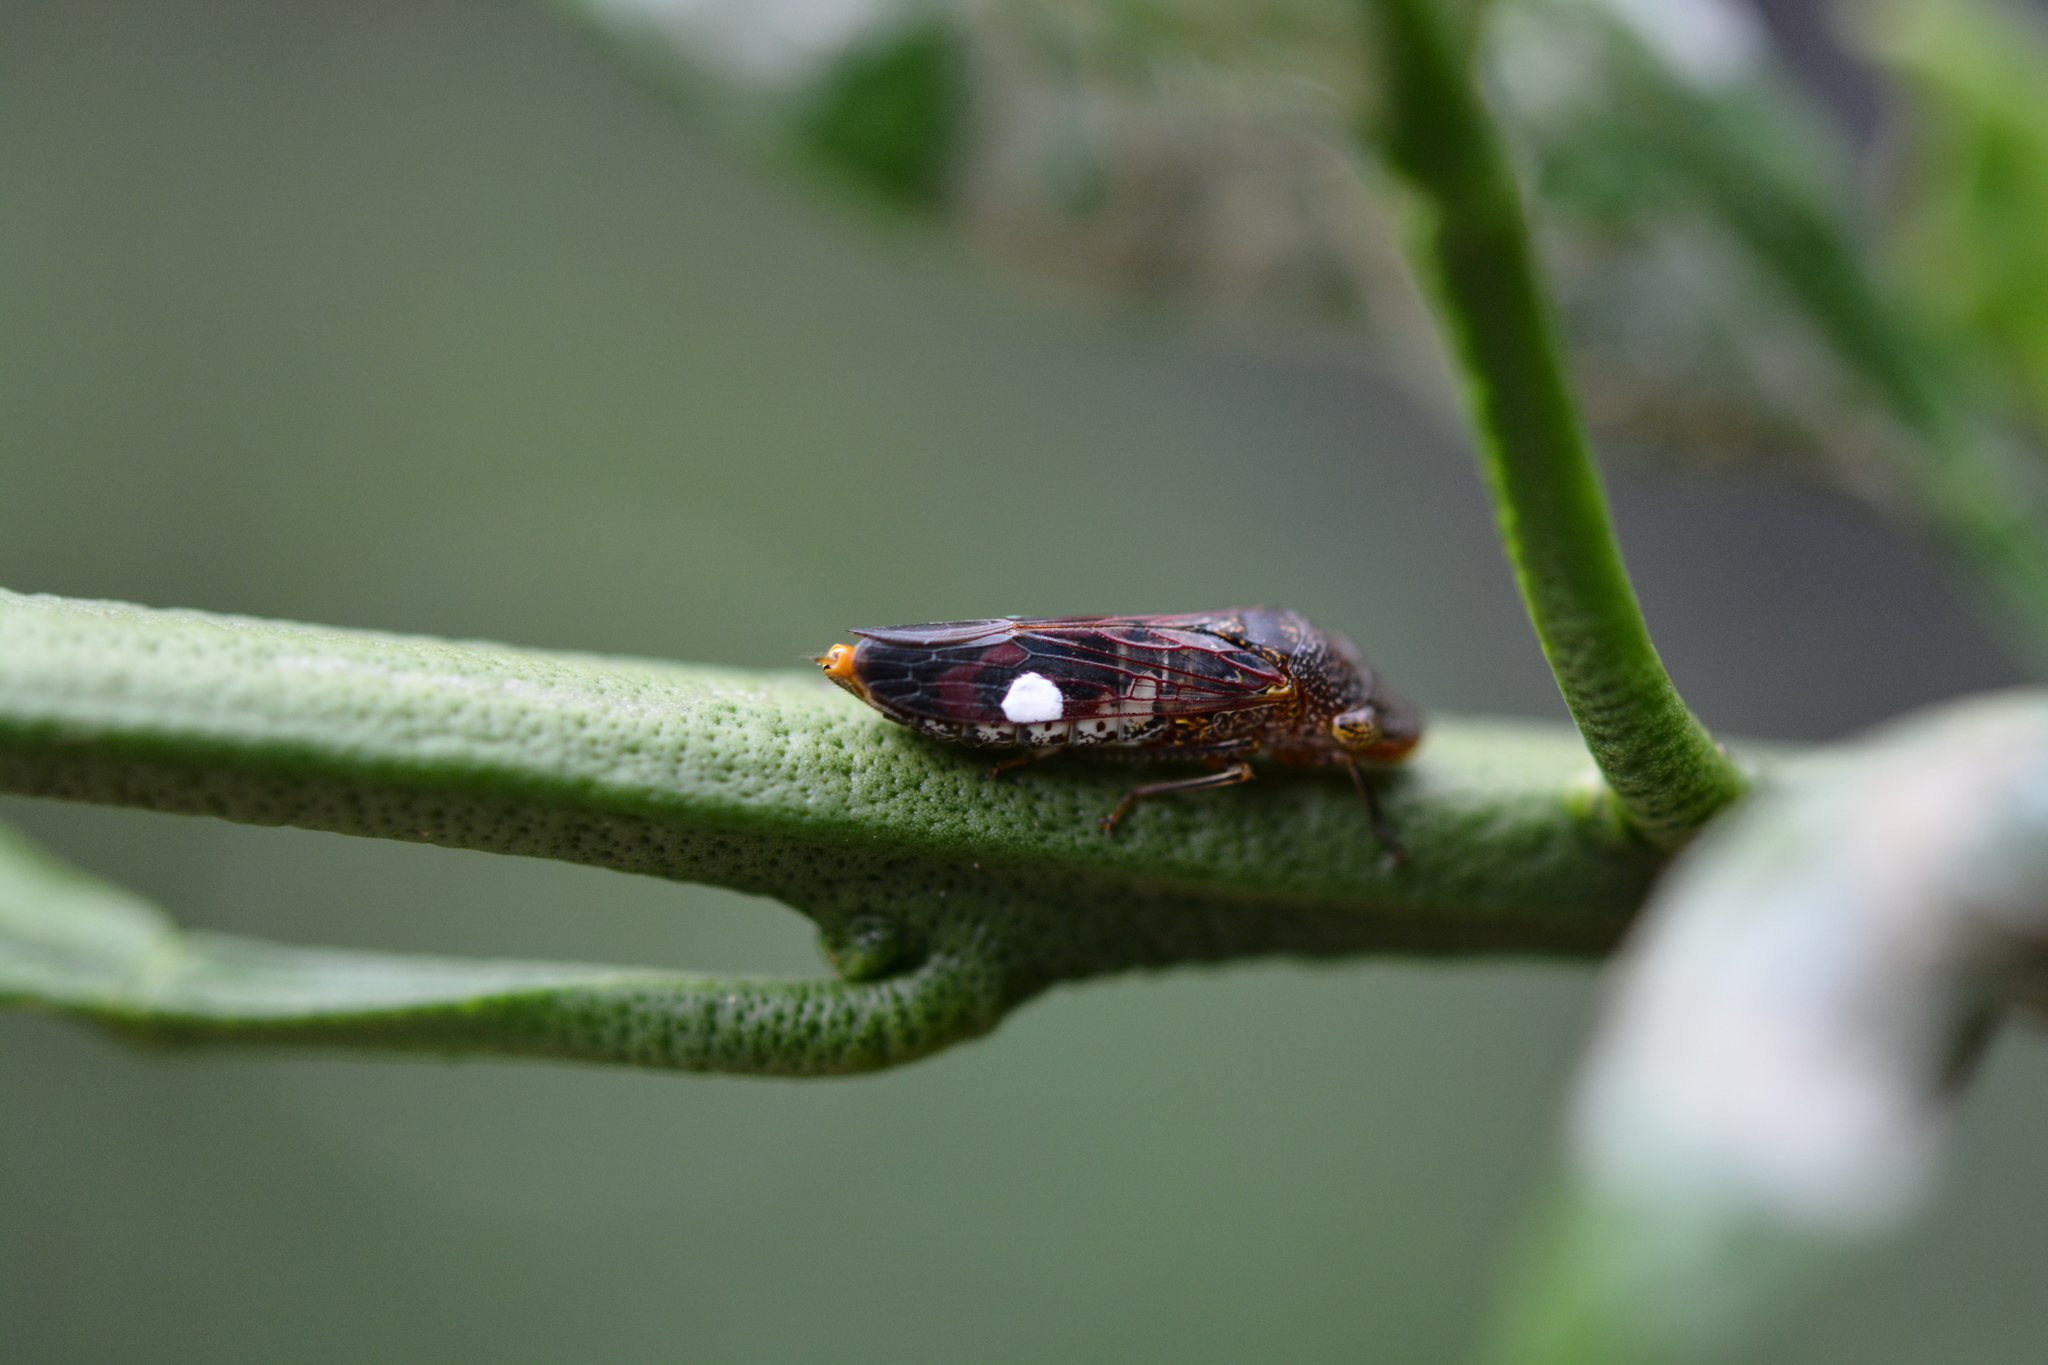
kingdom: Animalia
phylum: Arthropoda
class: Insecta
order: Hemiptera
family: Cicadellidae
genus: Homalodisca
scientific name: Homalodisca vitripennis
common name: Glassy-winged sharpshooter
